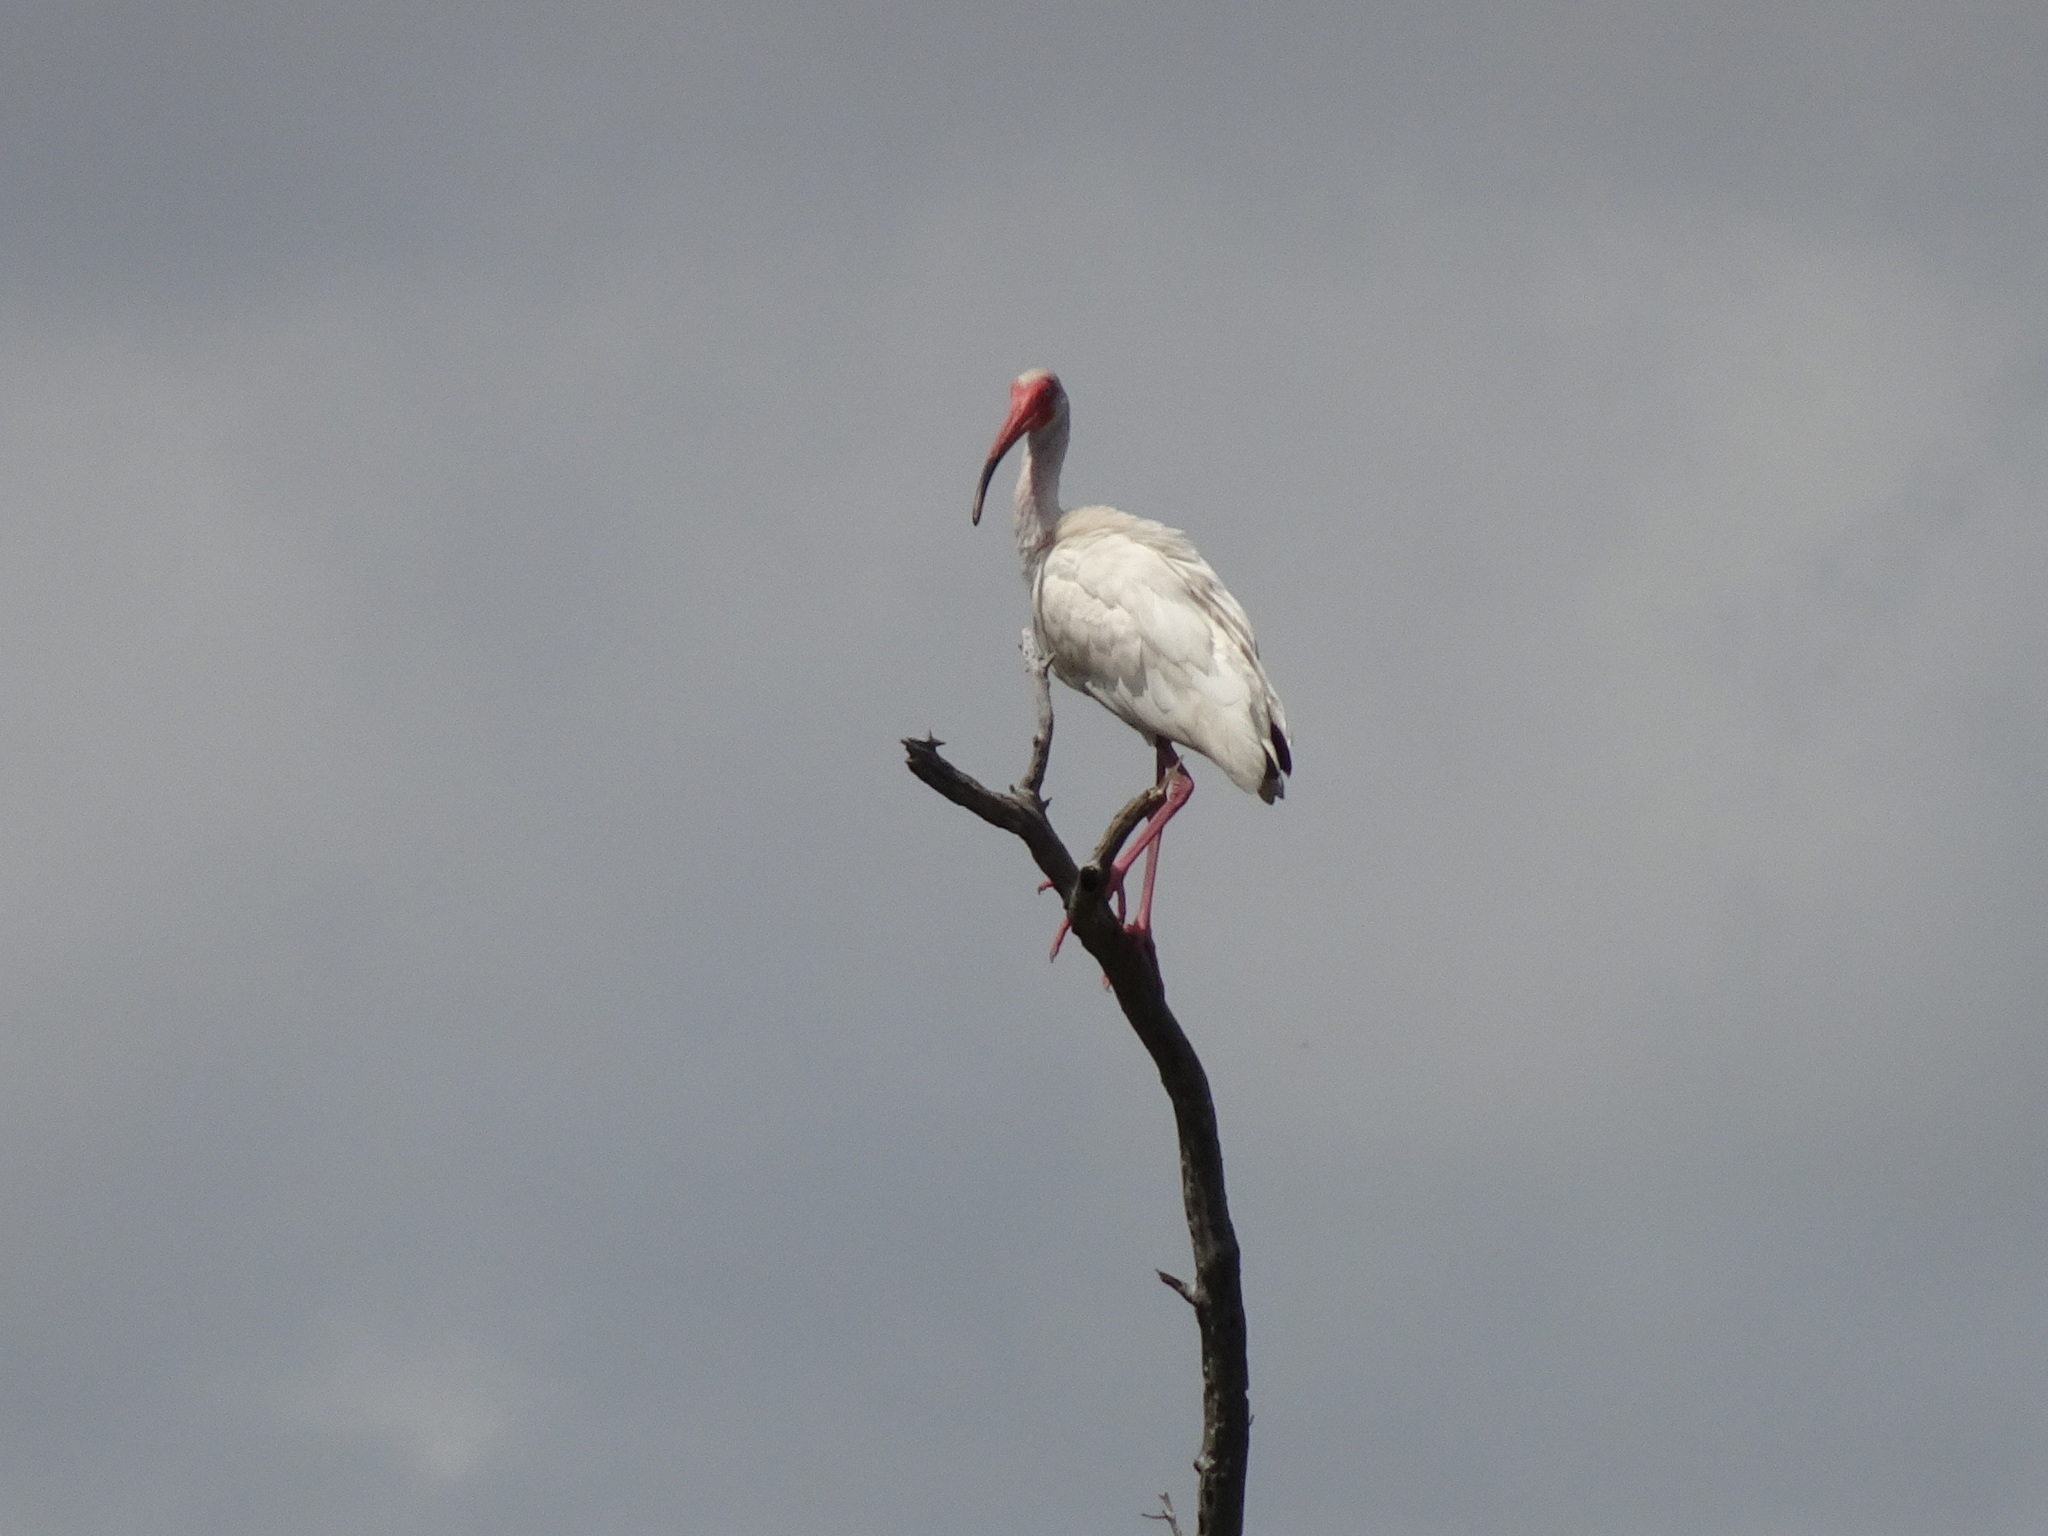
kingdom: Animalia
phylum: Chordata
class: Aves
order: Pelecaniformes
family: Threskiornithidae
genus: Eudocimus
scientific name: Eudocimus albus
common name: White ibis
